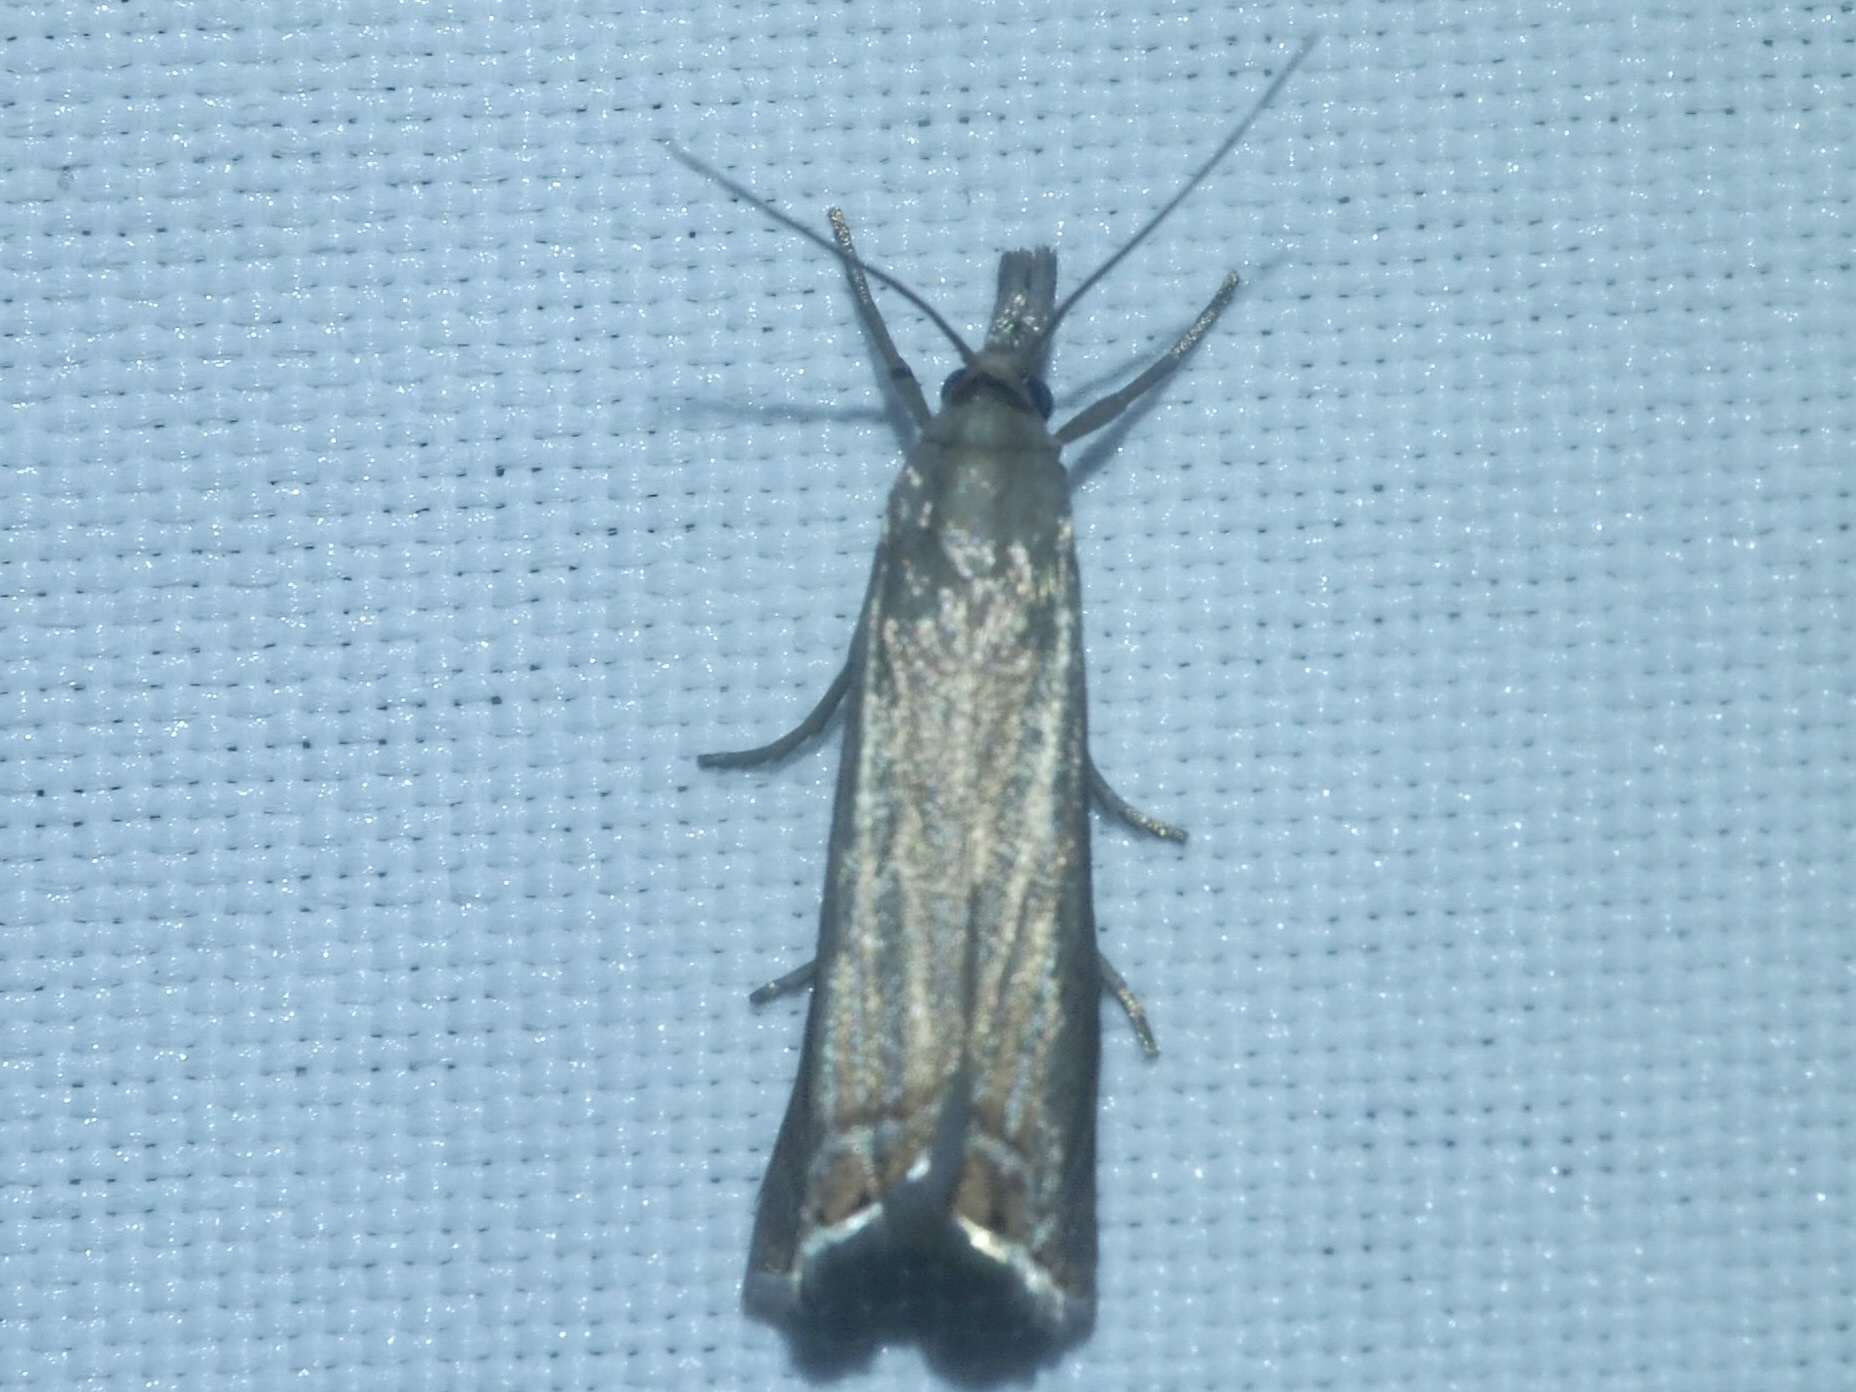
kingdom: Animalia
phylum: Arthropoda
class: Insecta
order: Lepidoptera
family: Crambidae
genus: Chrysoteuchia
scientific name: Chrysoteuchia culmella
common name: Garden grass-veneer
